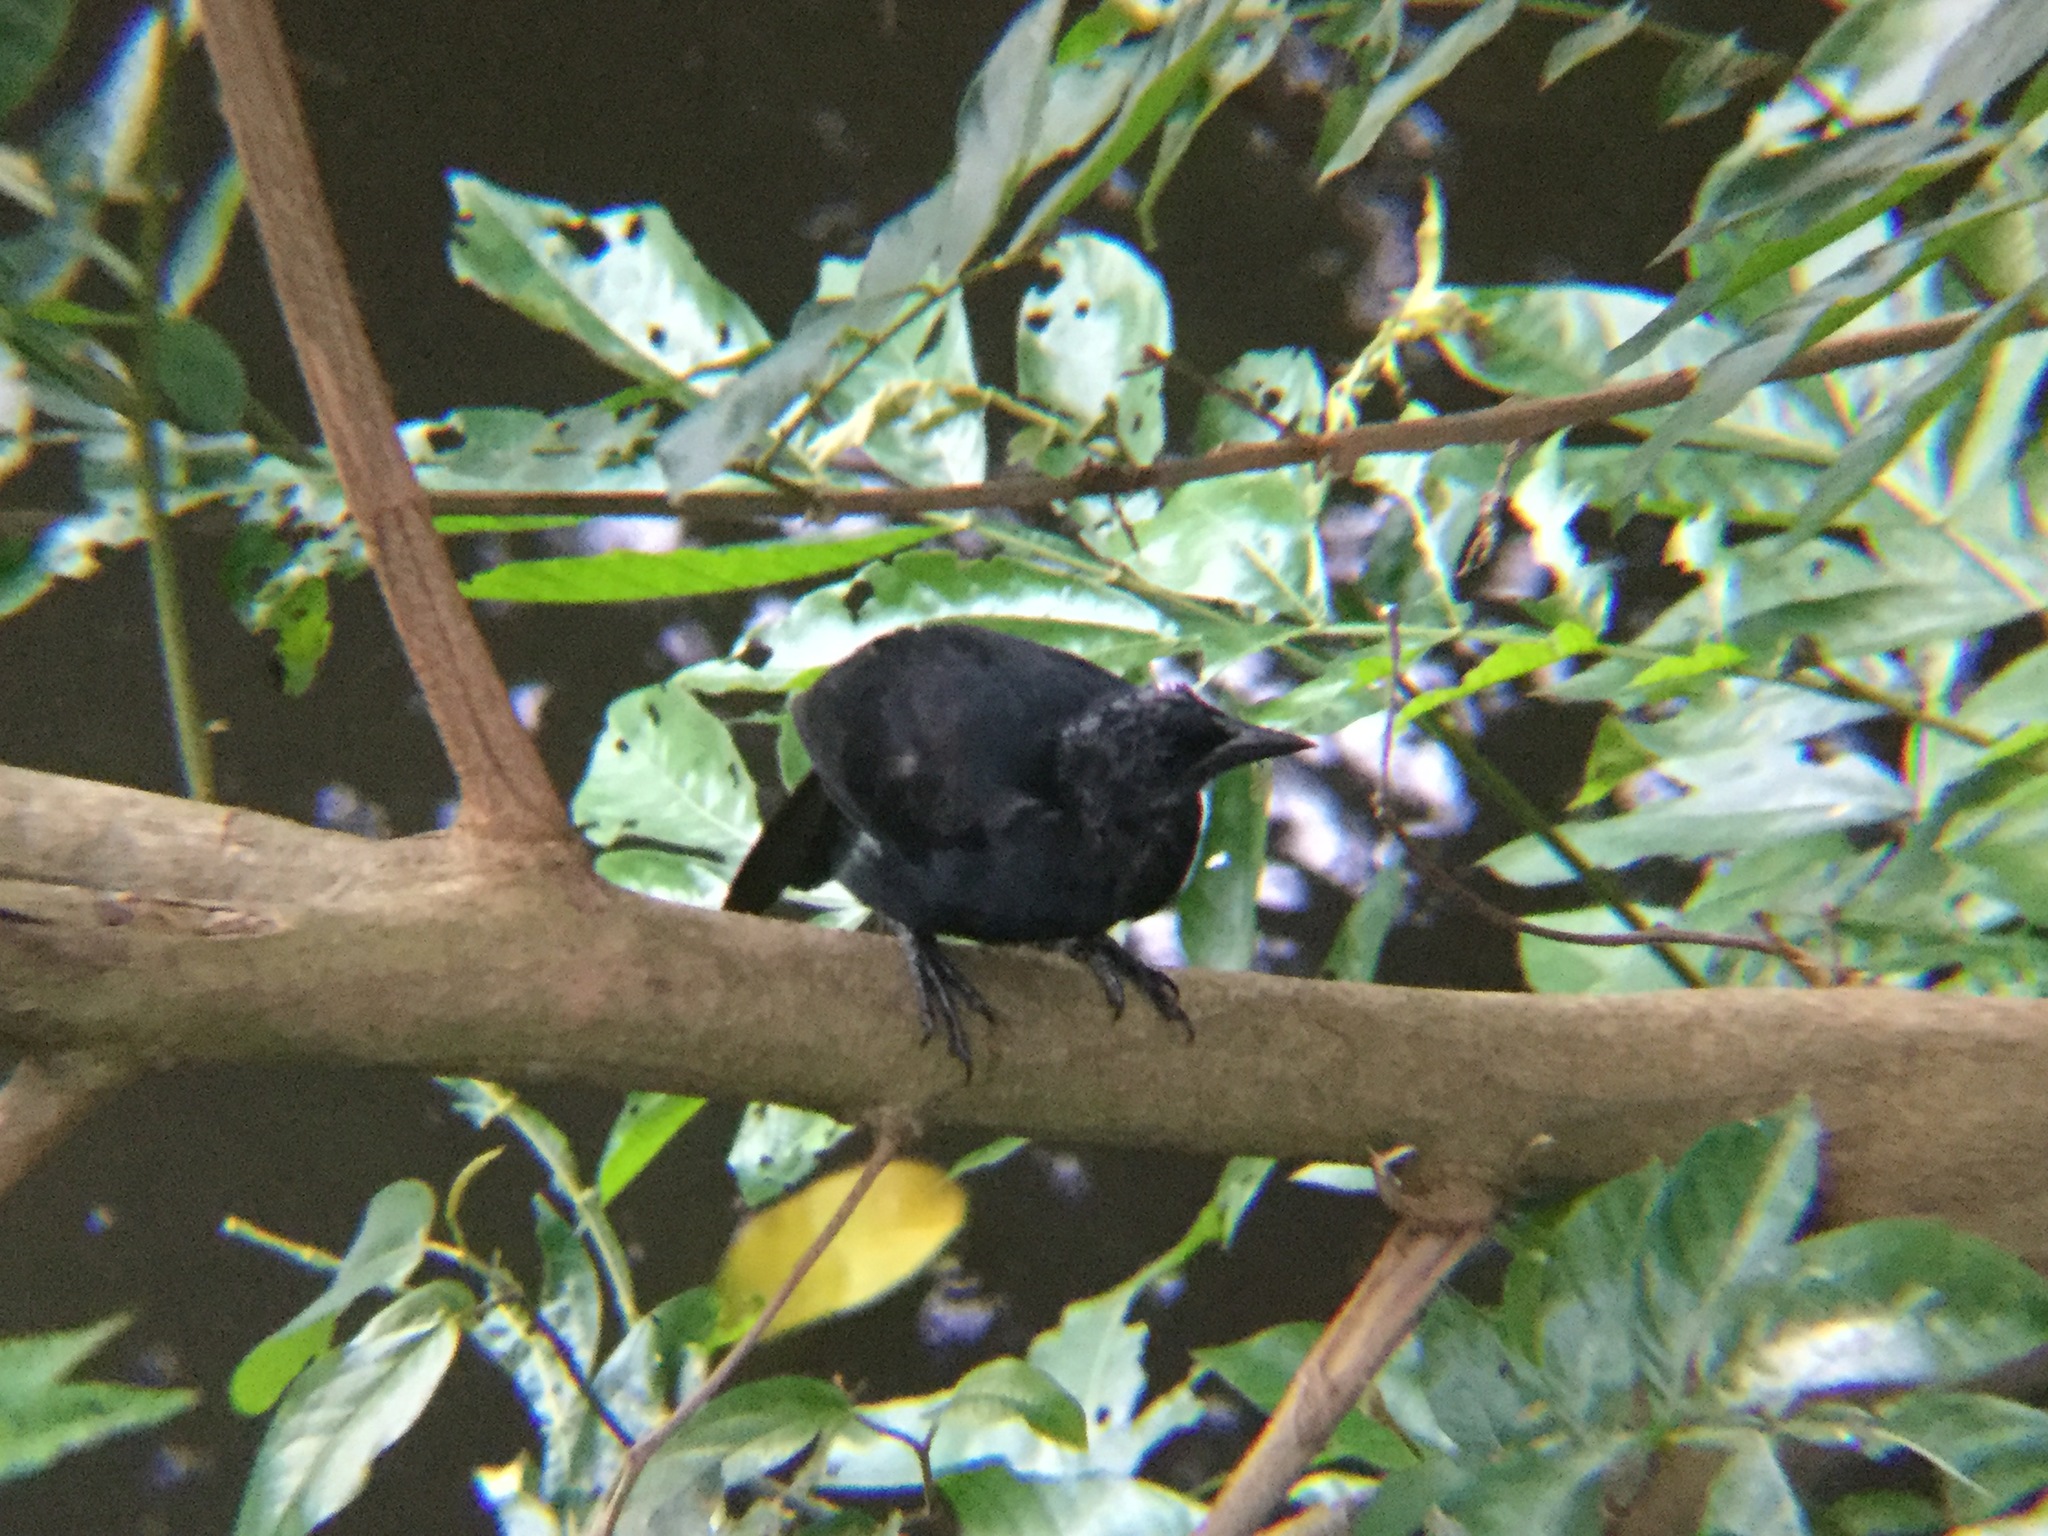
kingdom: Animalia
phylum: Chordata
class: Aves
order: Passeriformes
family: Icteridae
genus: Dives
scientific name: Dives dives
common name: Melodious blackbird
